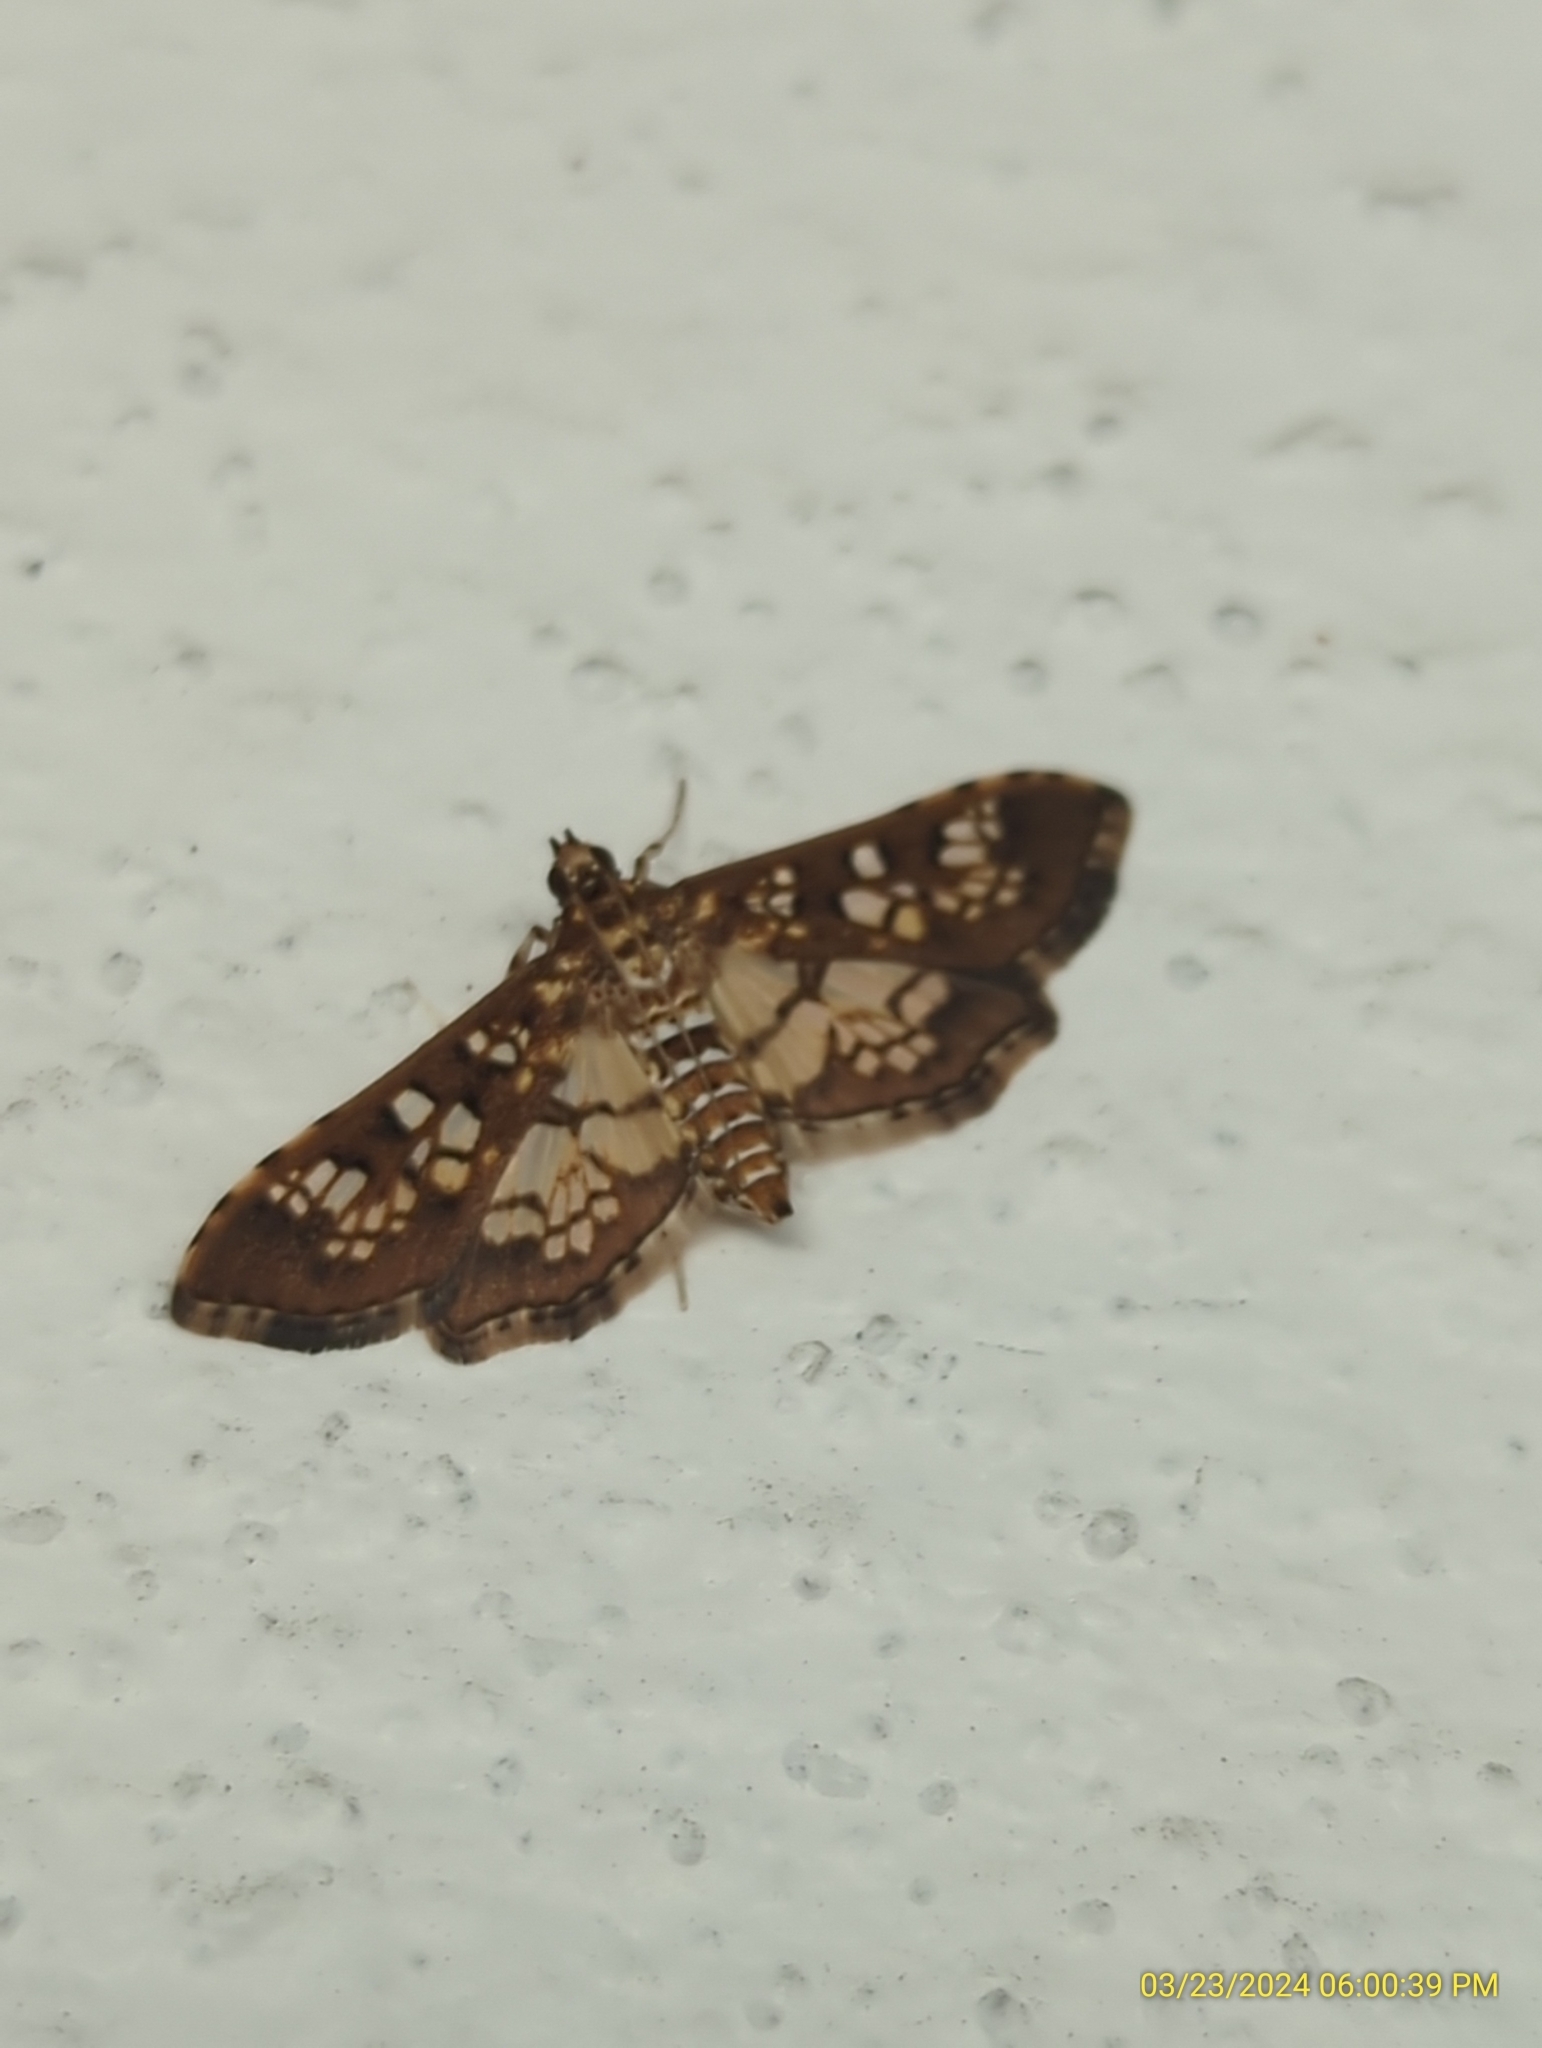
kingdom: Animalia
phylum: Arthropoda
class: Insecta
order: Lepidoptera
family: Crambidae
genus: Samea
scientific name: Samea ecclesialis
